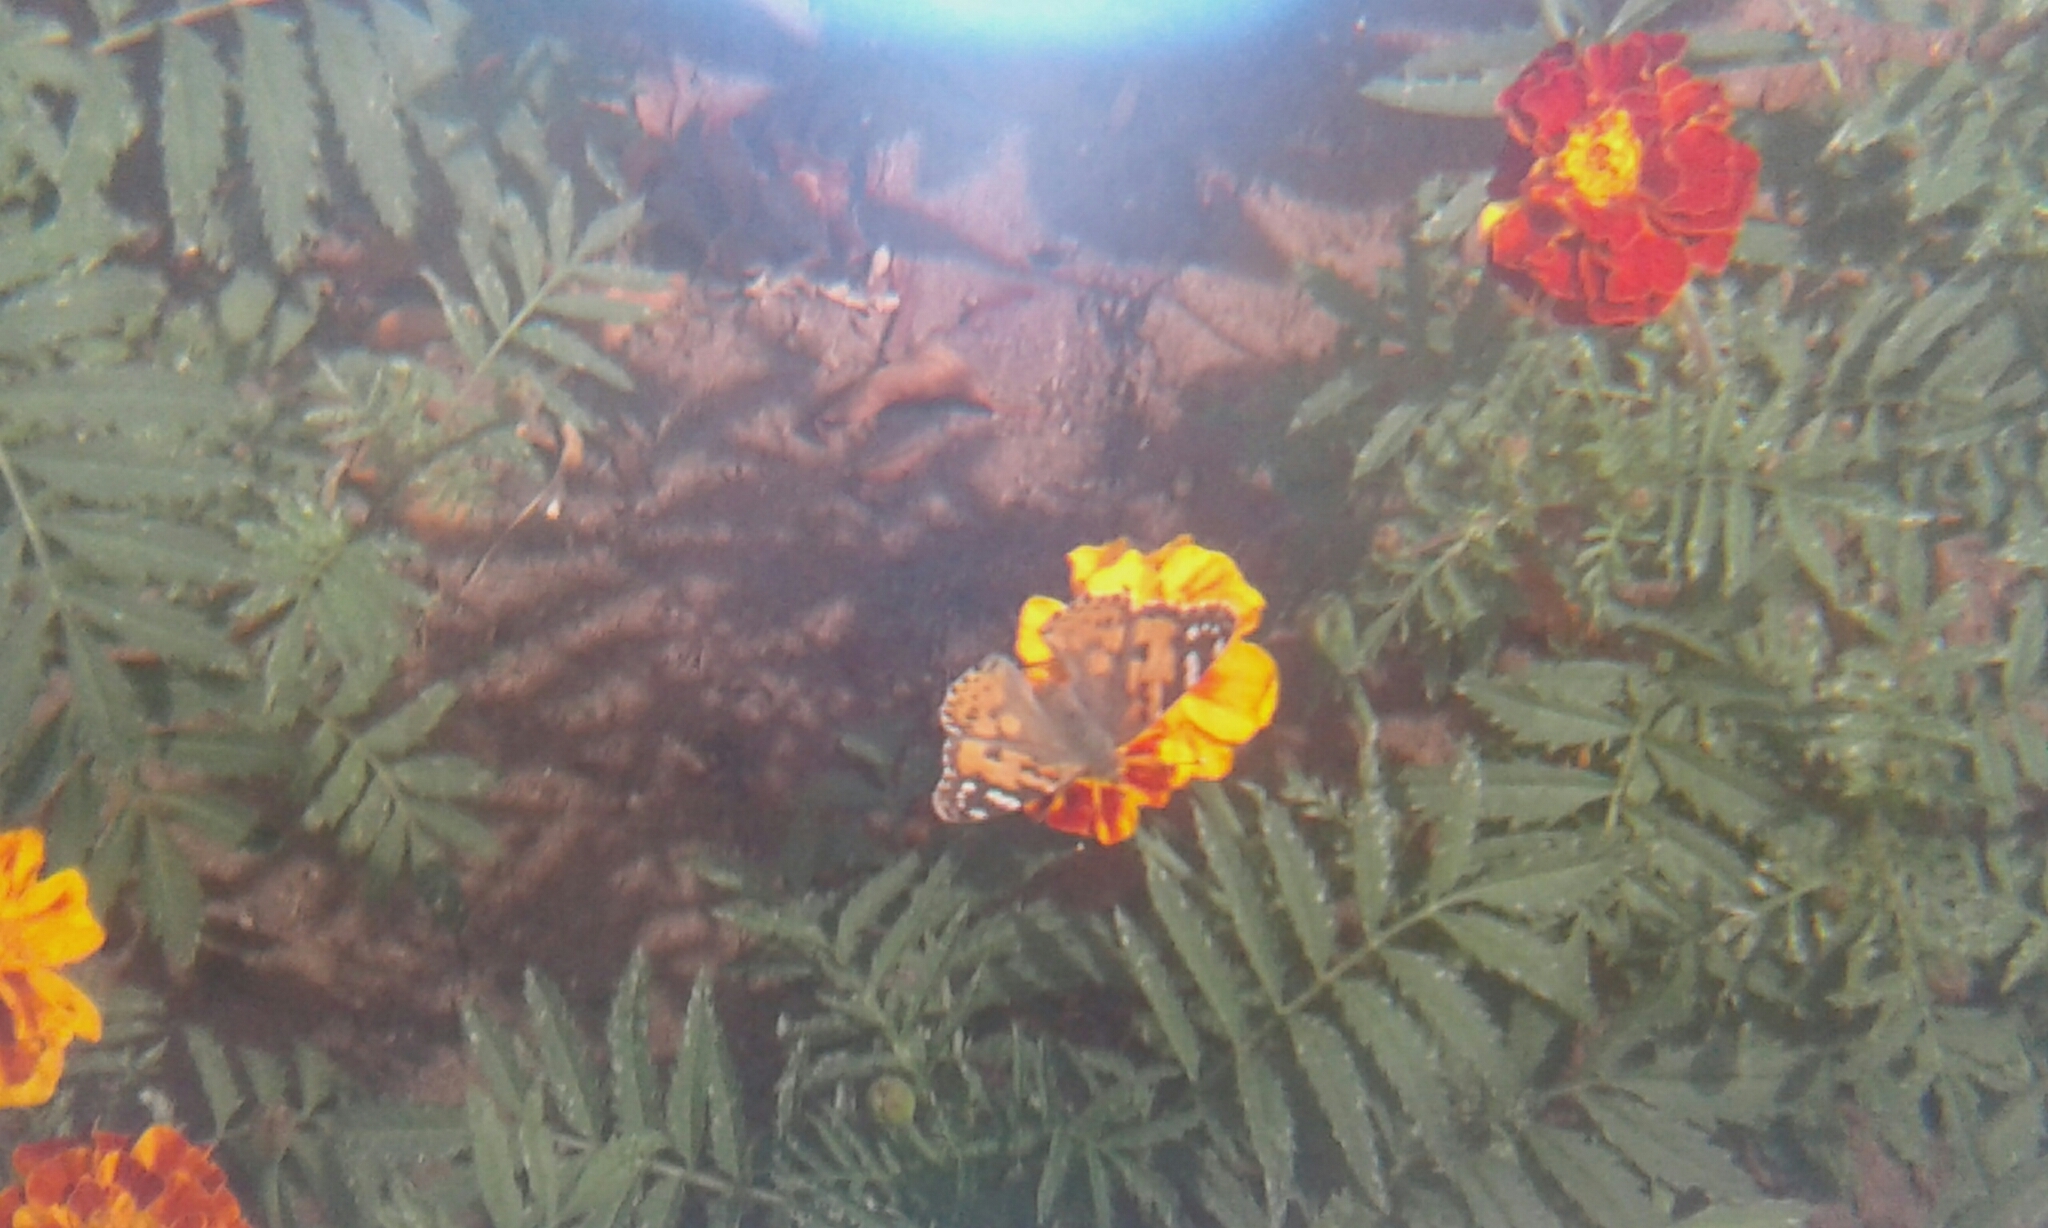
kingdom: Animalia
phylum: Arthropoda
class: Insecta
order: Lepidoptera
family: Nymphalidae
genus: Vanessa
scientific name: Vanessa cardui
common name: Painted lady
